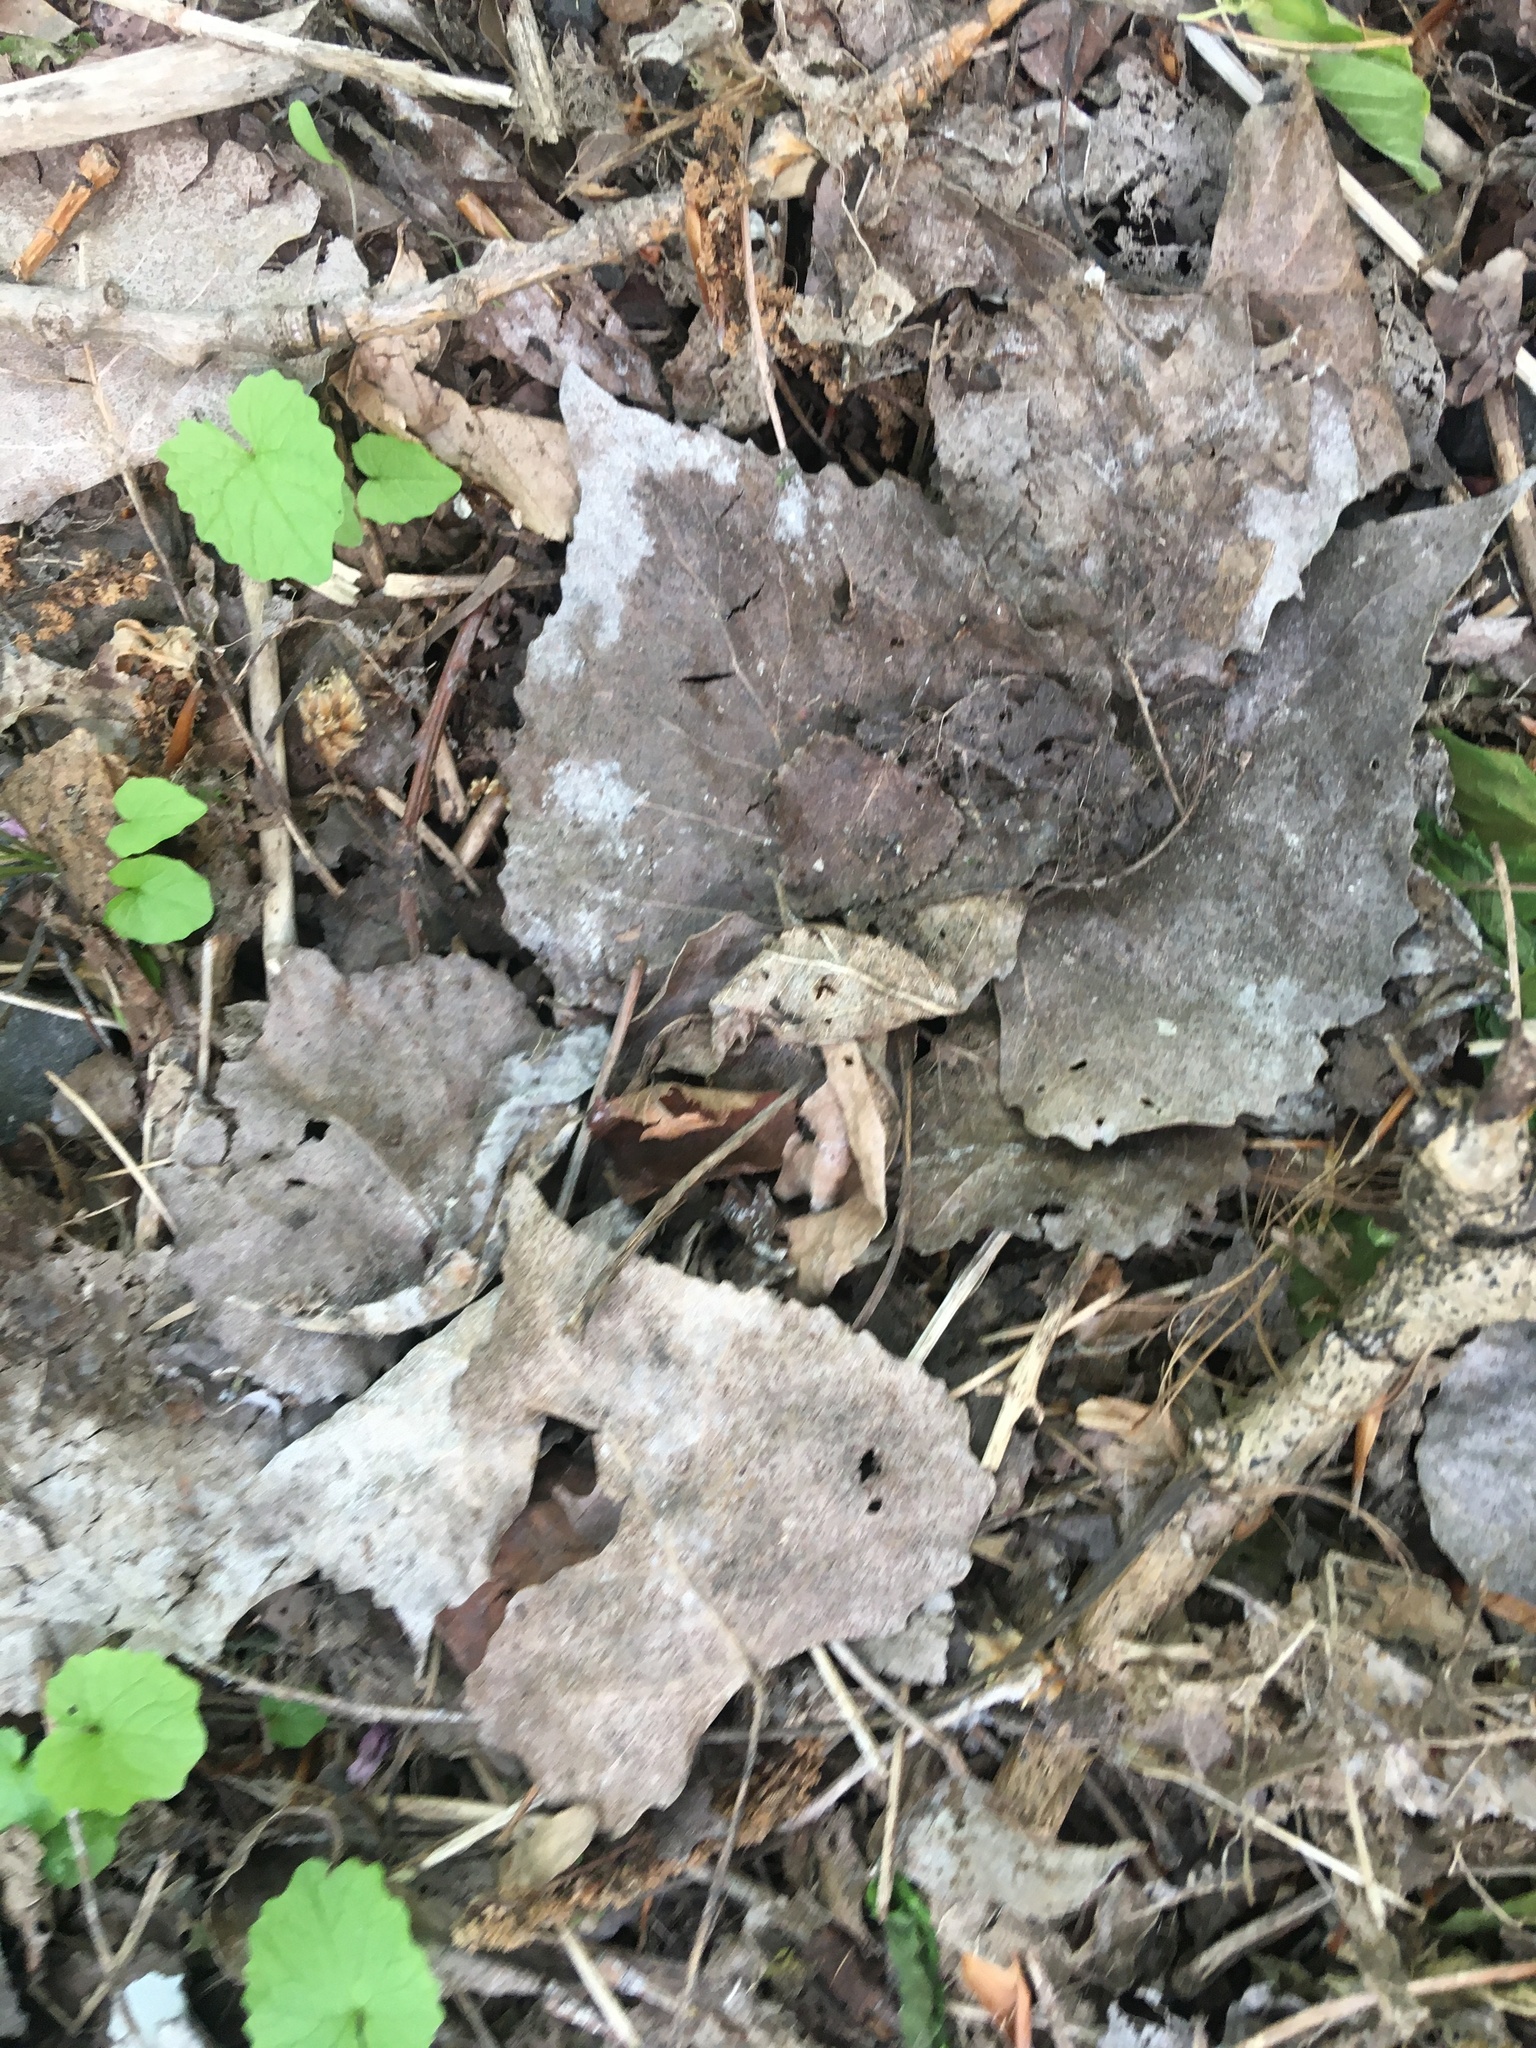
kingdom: Plantae
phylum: Tracheophyta
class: Magnoliopsida
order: Malpighiales
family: Salicaceae
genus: Populus
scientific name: Populus deltoides
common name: Eastern cottonwood
